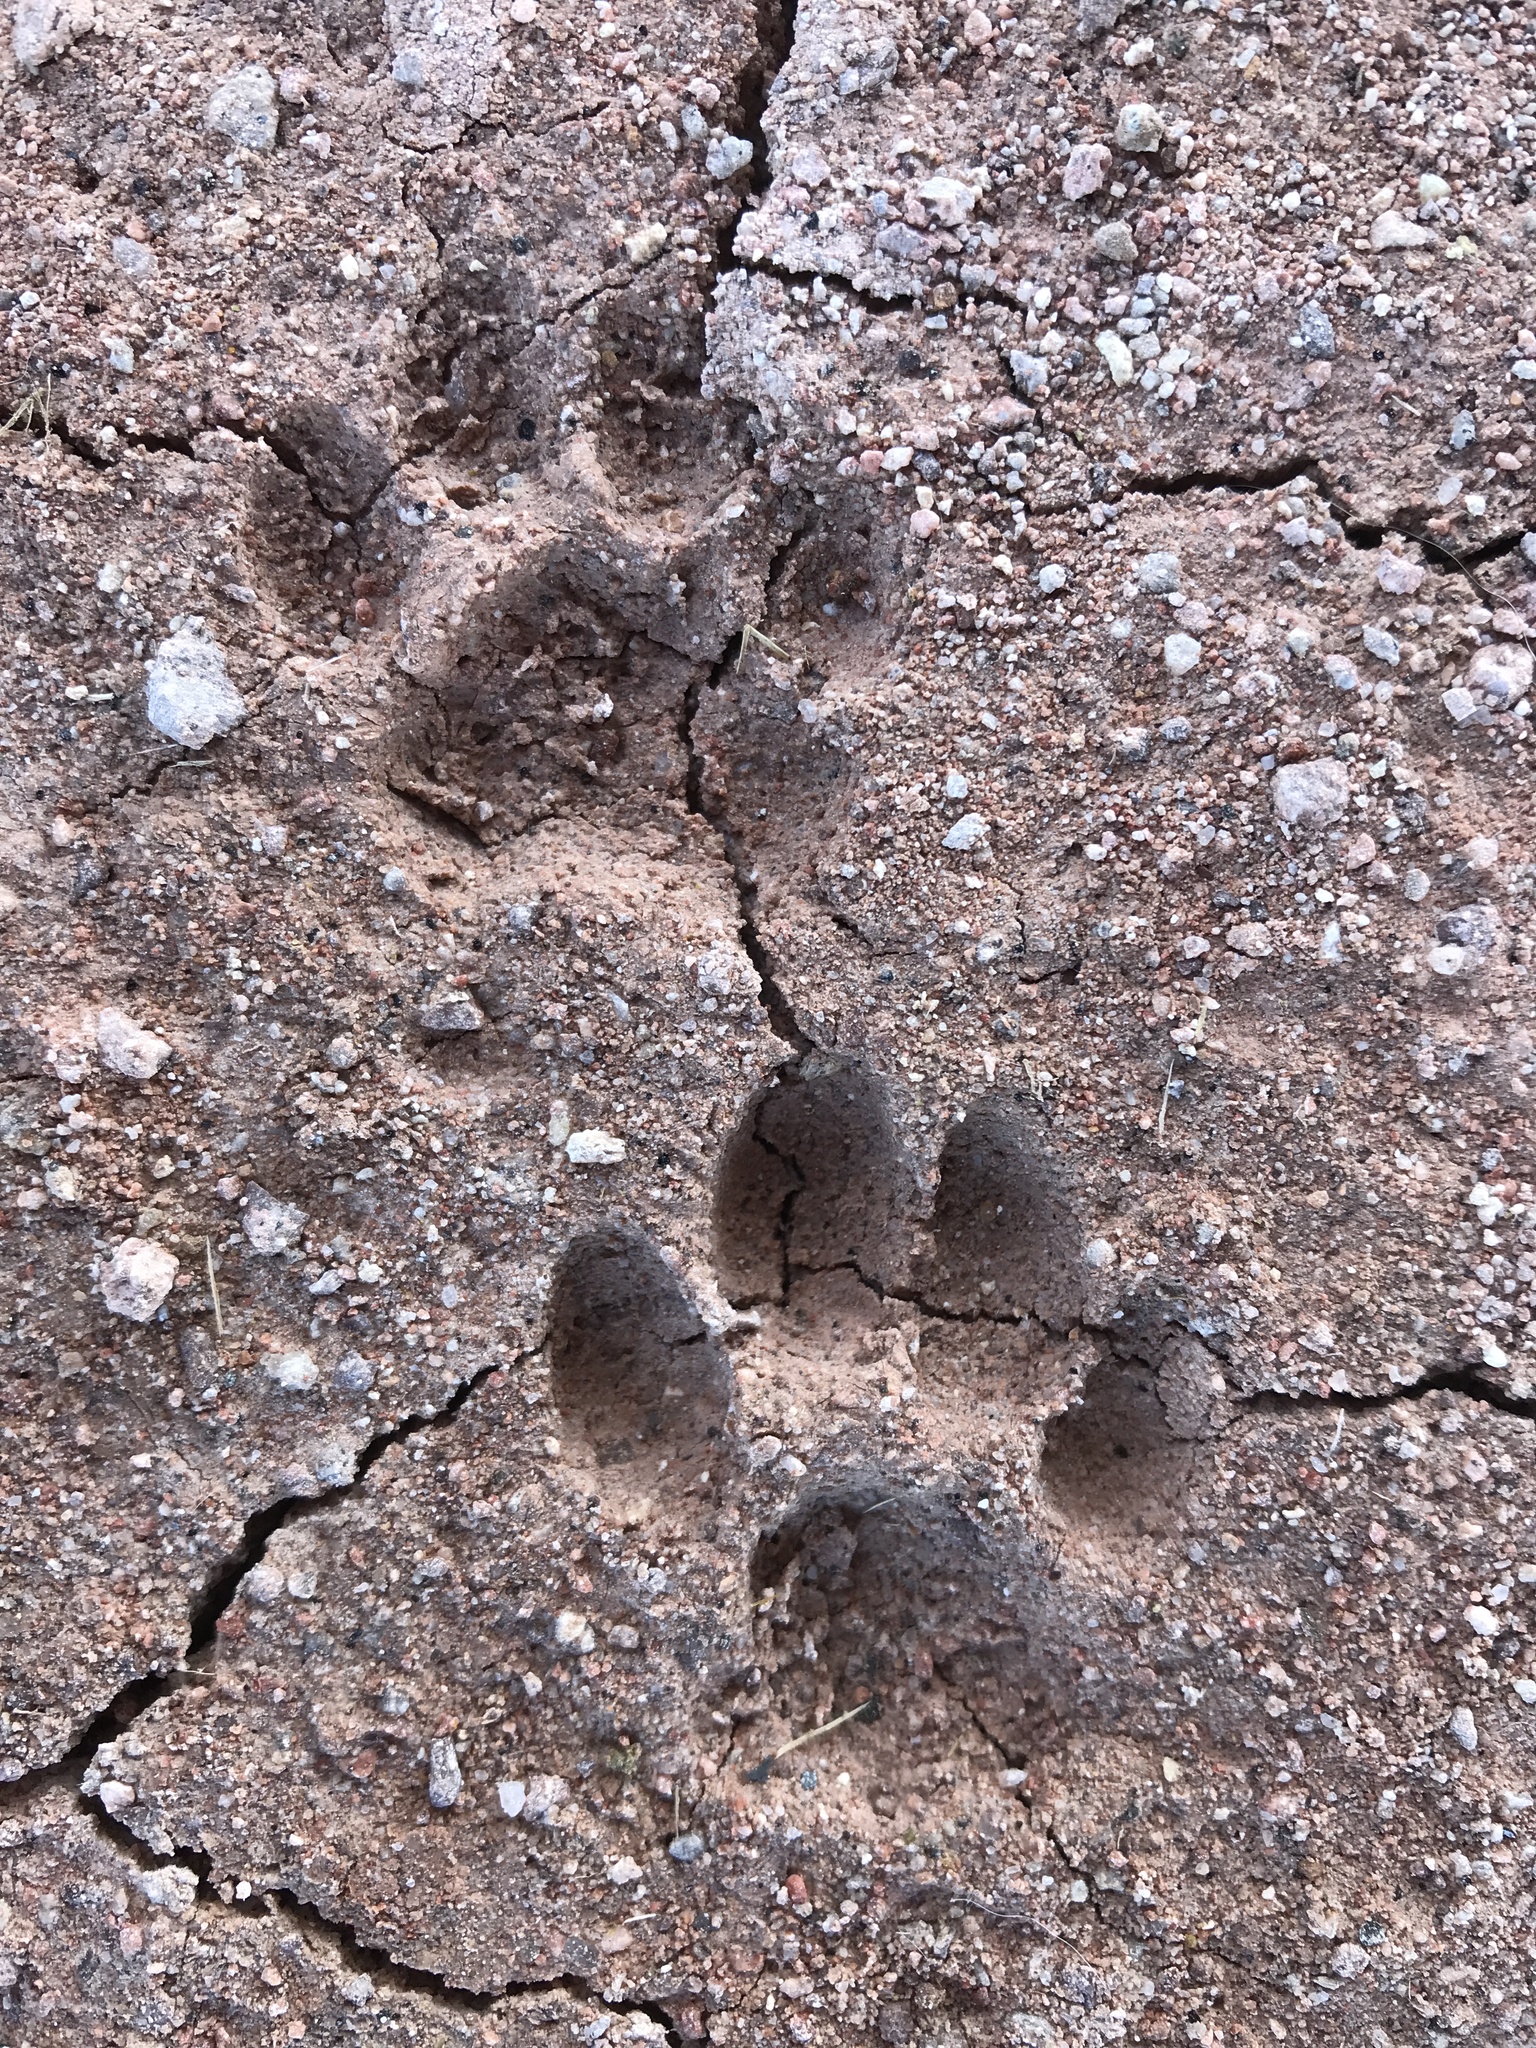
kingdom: Animalia
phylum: Chordata
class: Mammalia
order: Carnivora
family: Felidae
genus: Felis
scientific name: Felis catus
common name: Domestic cat
